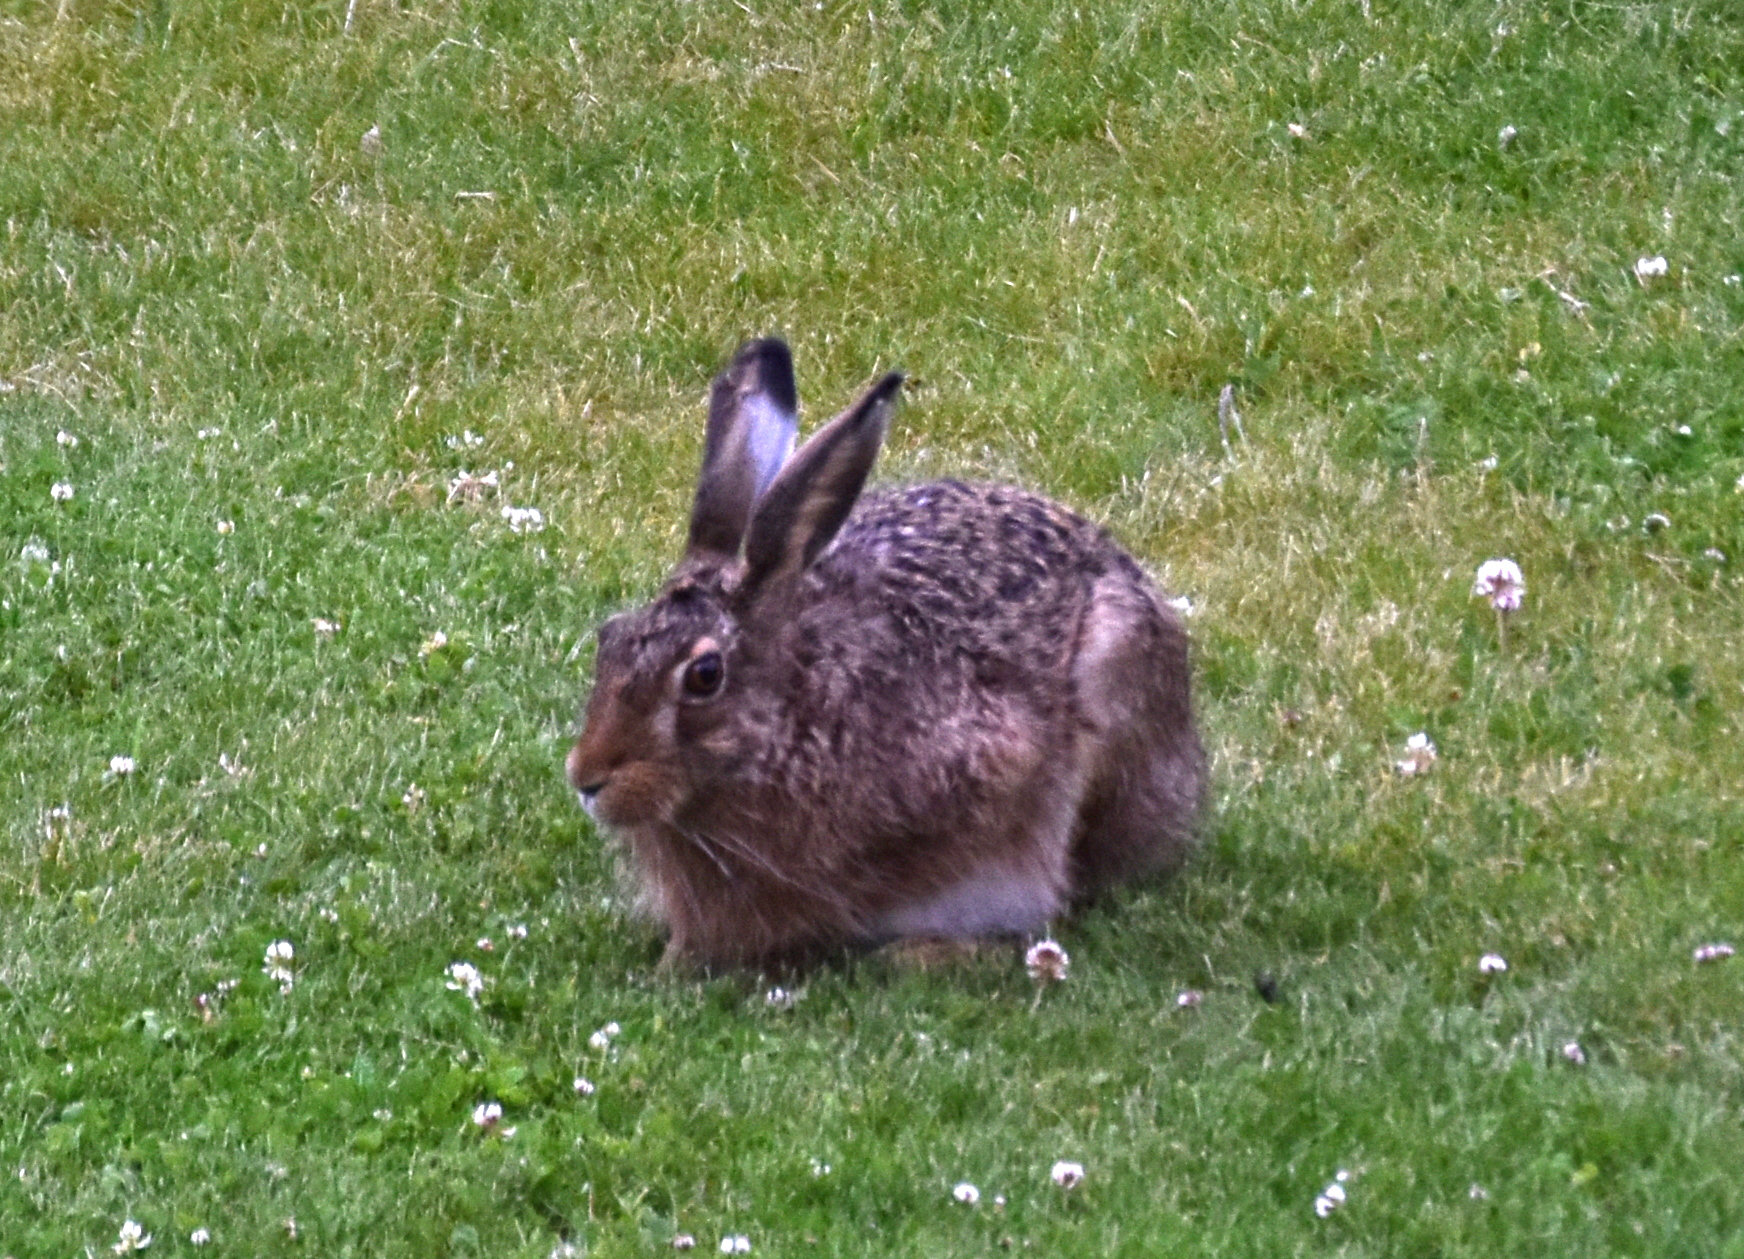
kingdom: Animalia
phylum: Chordata
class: Mammalia
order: Lagomorpha
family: Leporidae
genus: Lepus
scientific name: Lepus europaeus
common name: European hare
